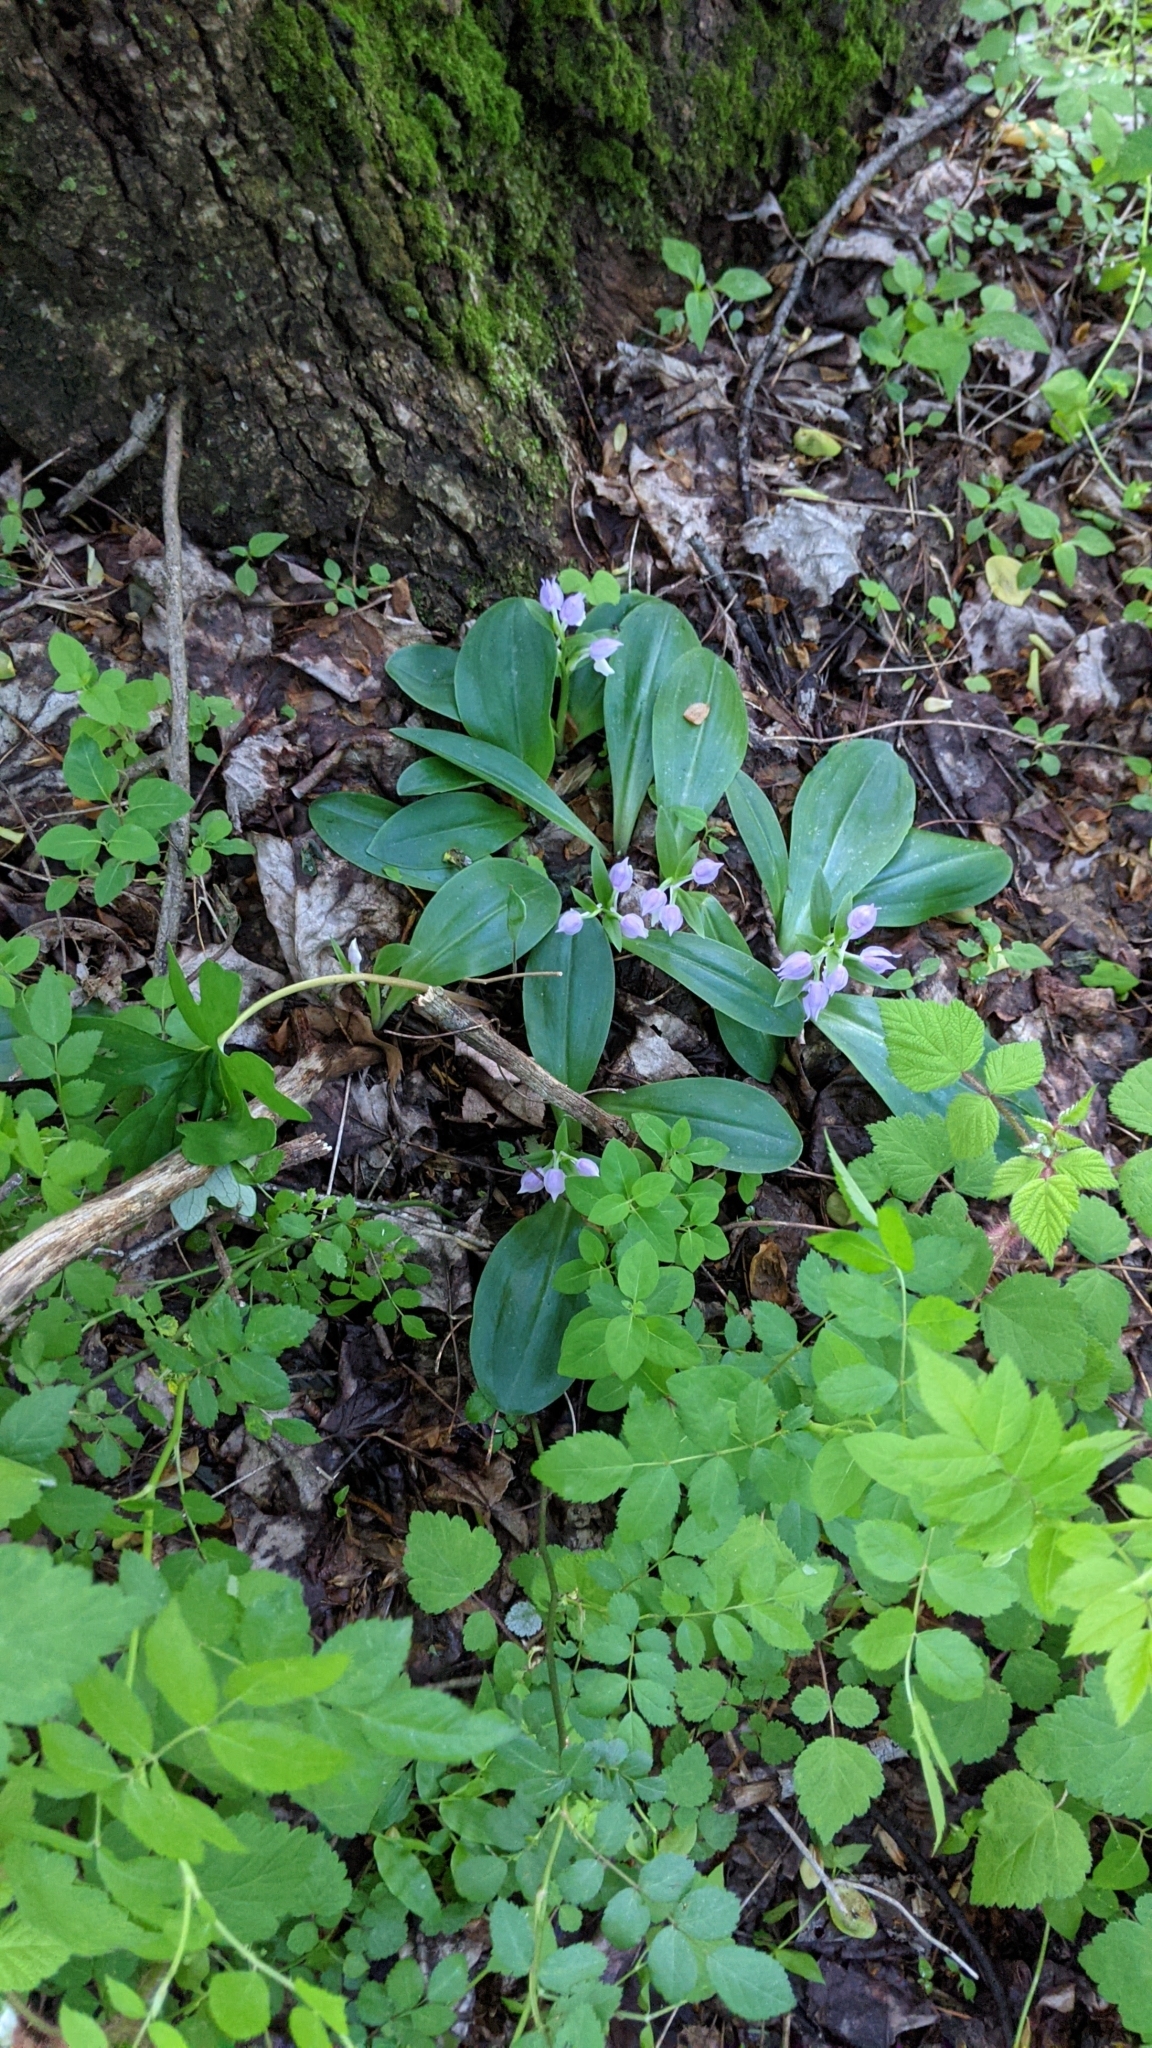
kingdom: Plantae
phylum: Tracheophyta
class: Liliopsida
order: Asparagales
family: Orchidaceae
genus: Galearis
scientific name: Galearis spectabilis
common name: Purple-hooded orchis
